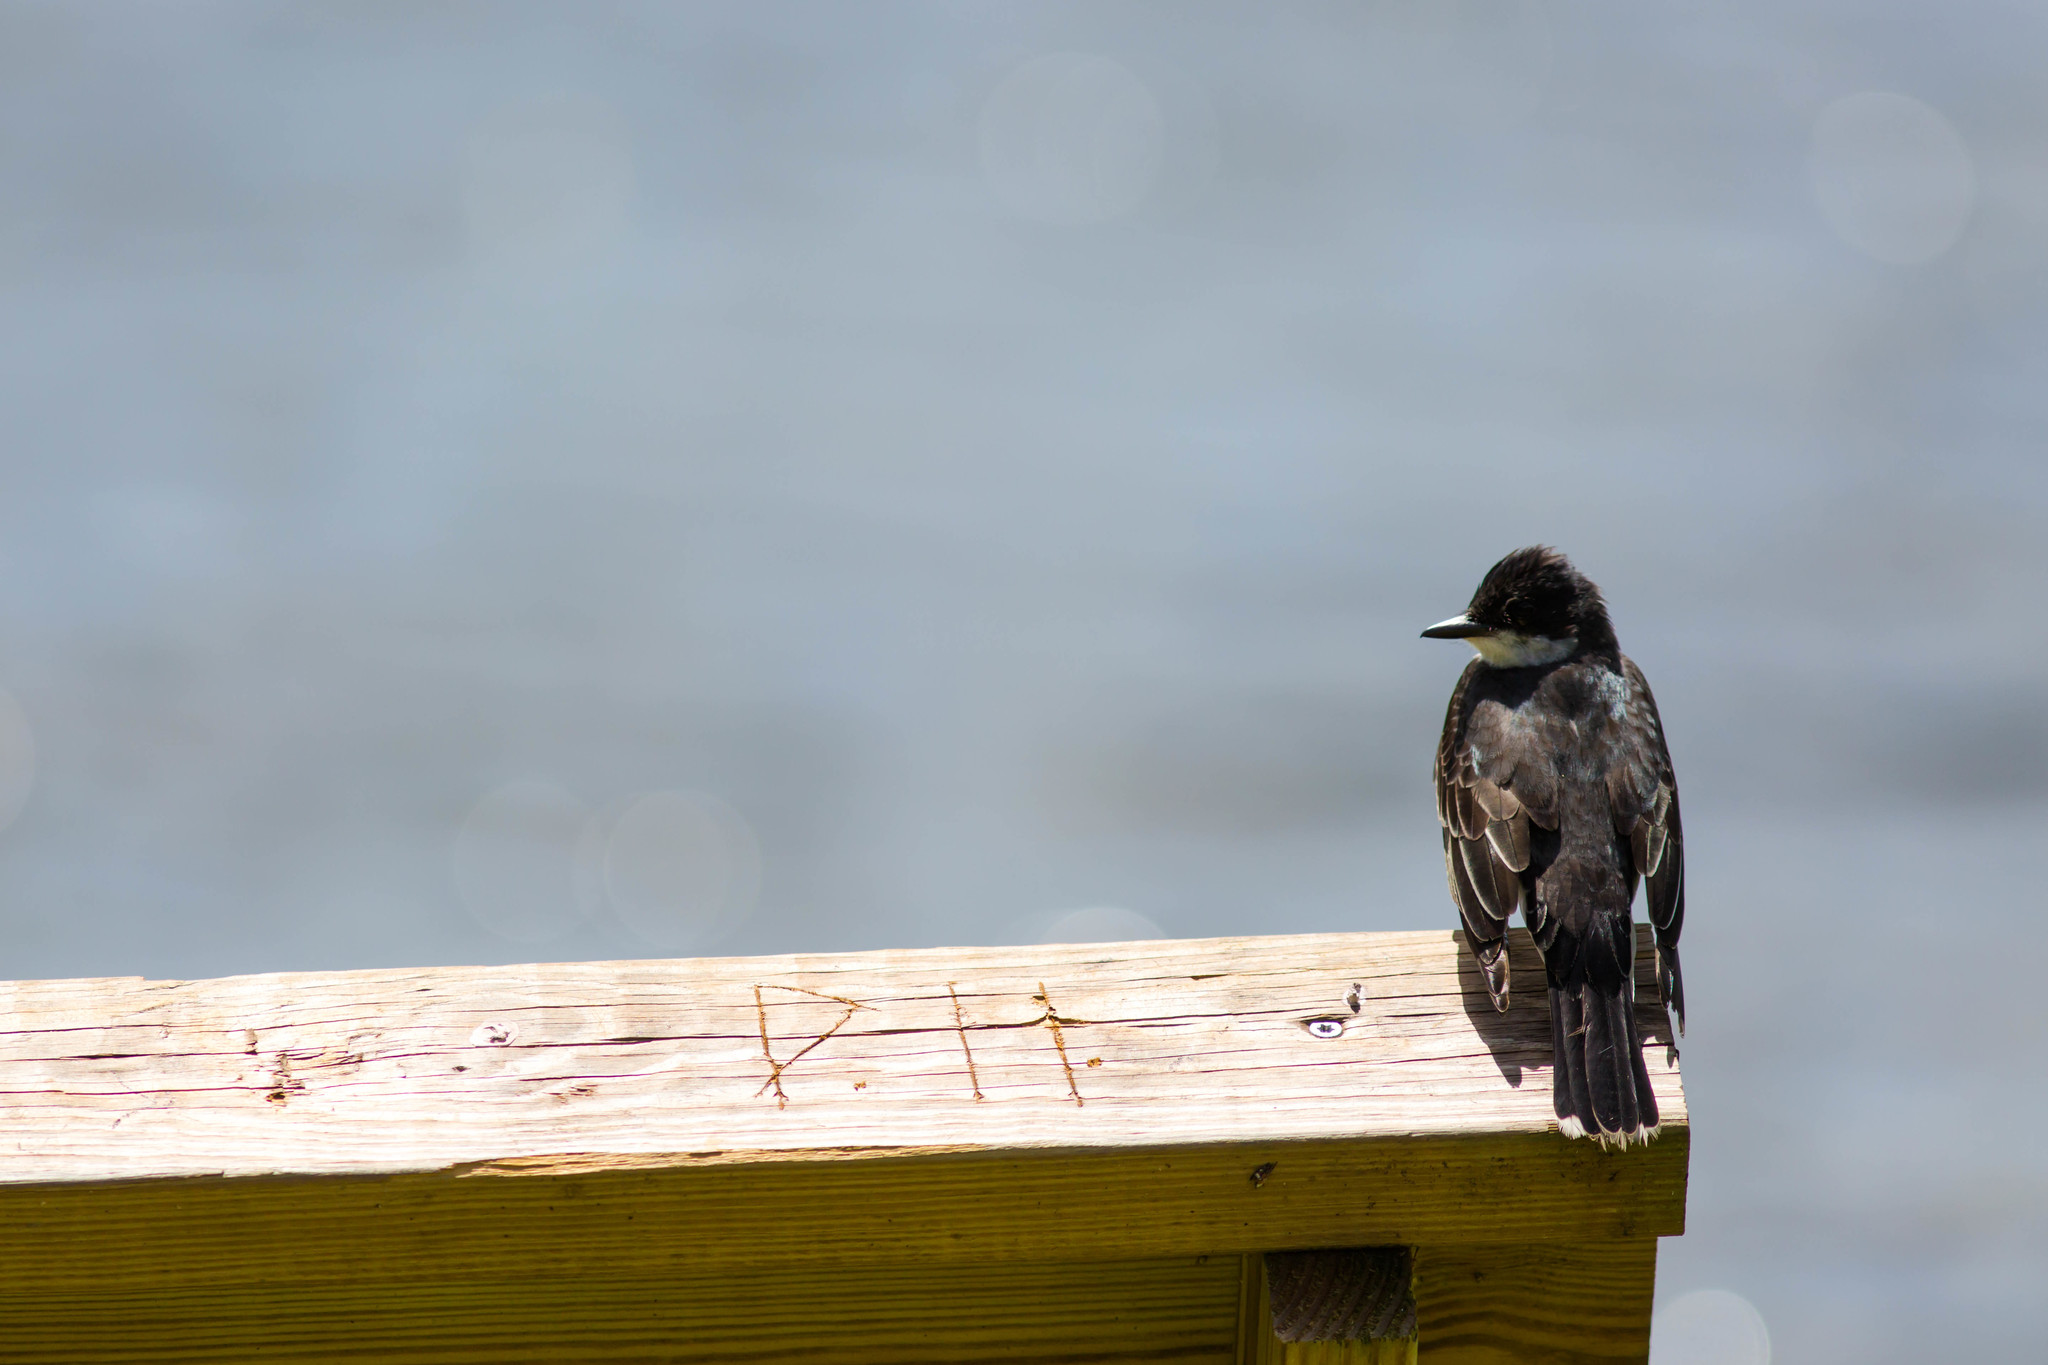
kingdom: Animalia
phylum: Chordata
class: Aves
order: Passeriformes
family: Tyrannidae
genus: Tyrannus
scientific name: Tyrannus tyrannus
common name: Eastern kingbird
